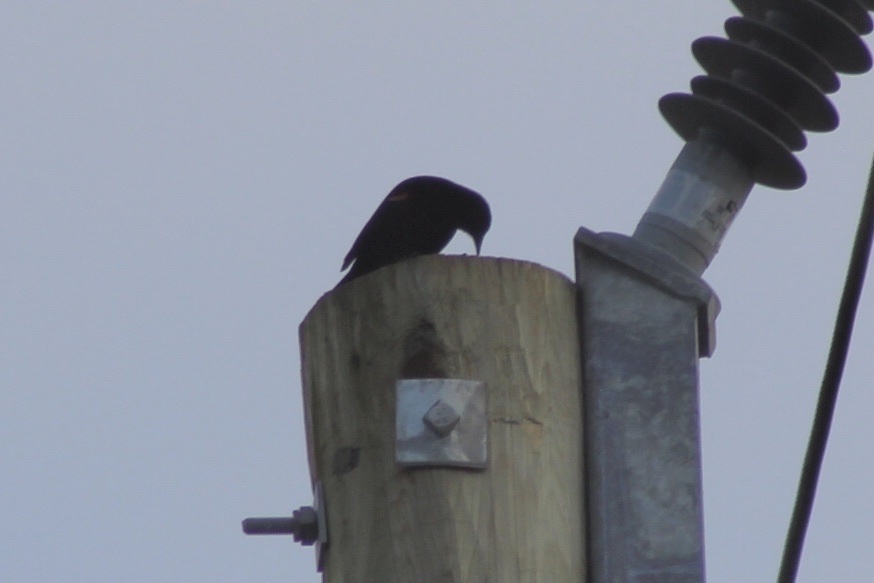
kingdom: Animalia
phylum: Chordata
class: Aves
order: Passeriformes
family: Icteridae
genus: Agelaius
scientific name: Agelaius phoeniceus
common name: Red-winged blackbird
